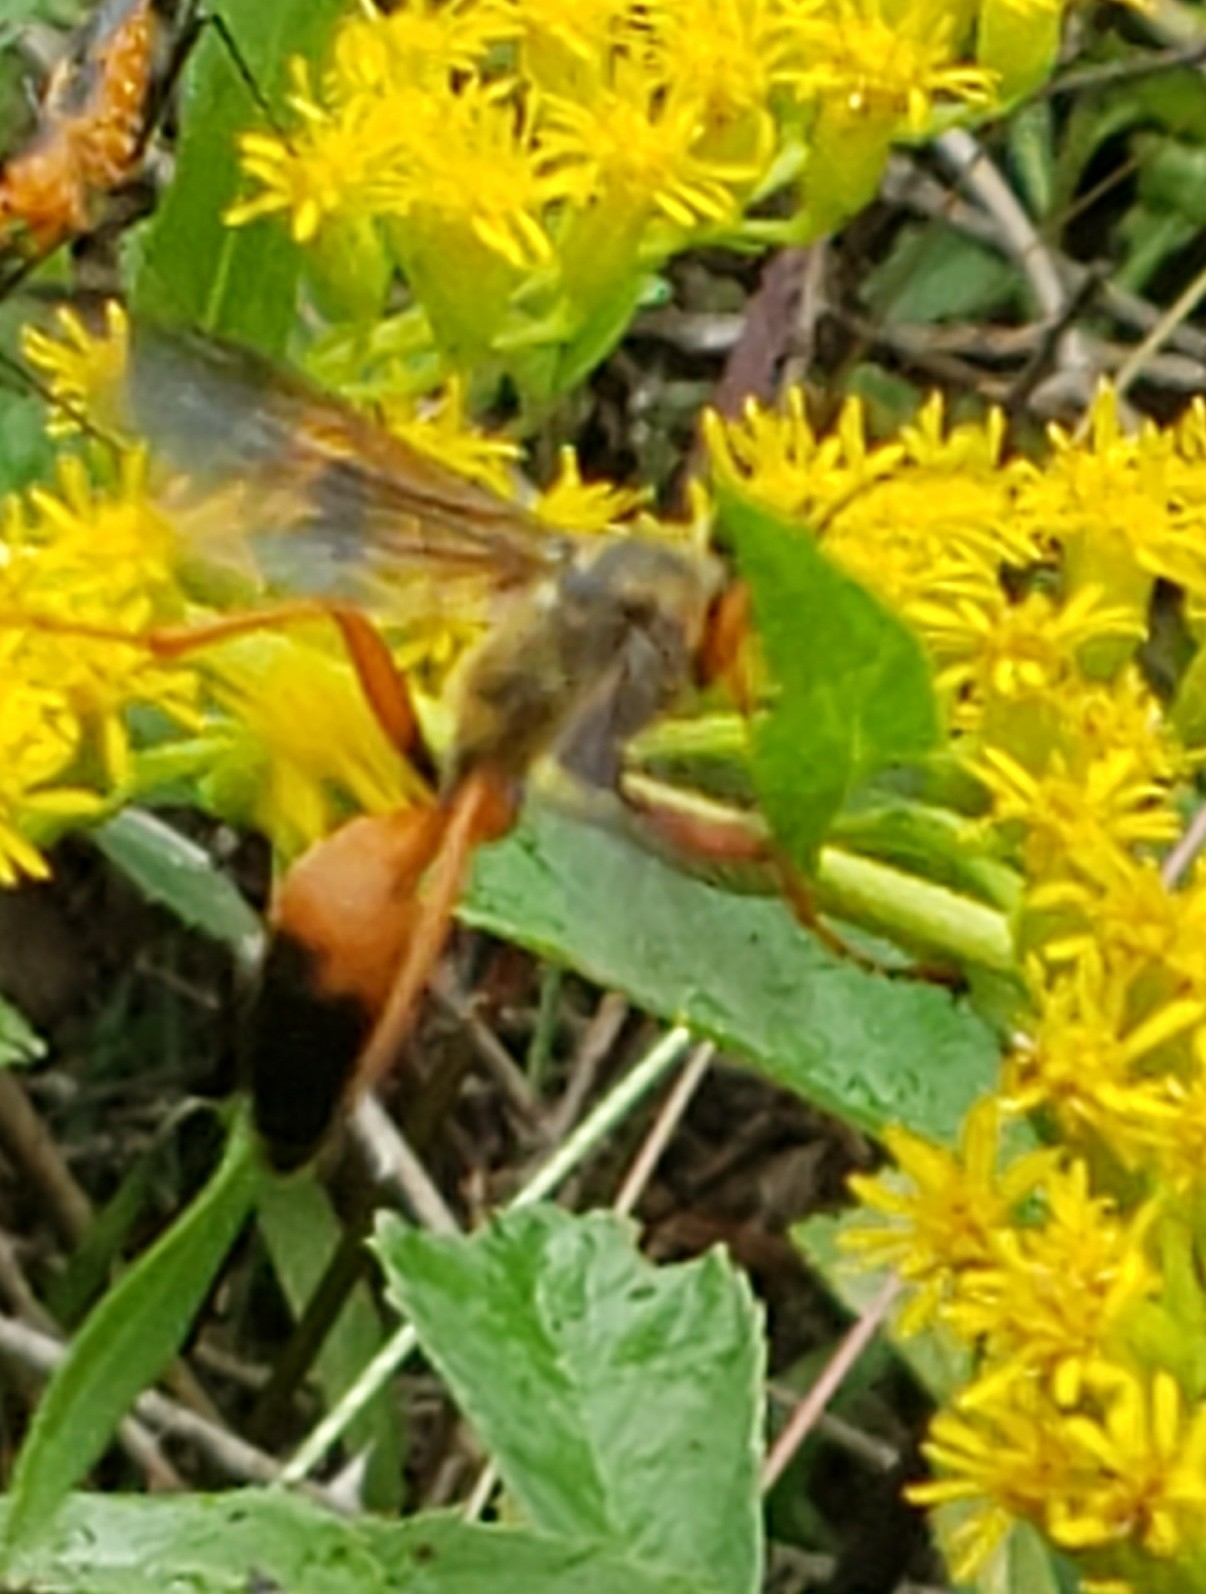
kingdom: Animalia
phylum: Arthropoda
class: Insecta
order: Hymenoptera
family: Sphecidae
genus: Sphex
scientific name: Sphex ichneumoneus
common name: Great golden digger wasp
